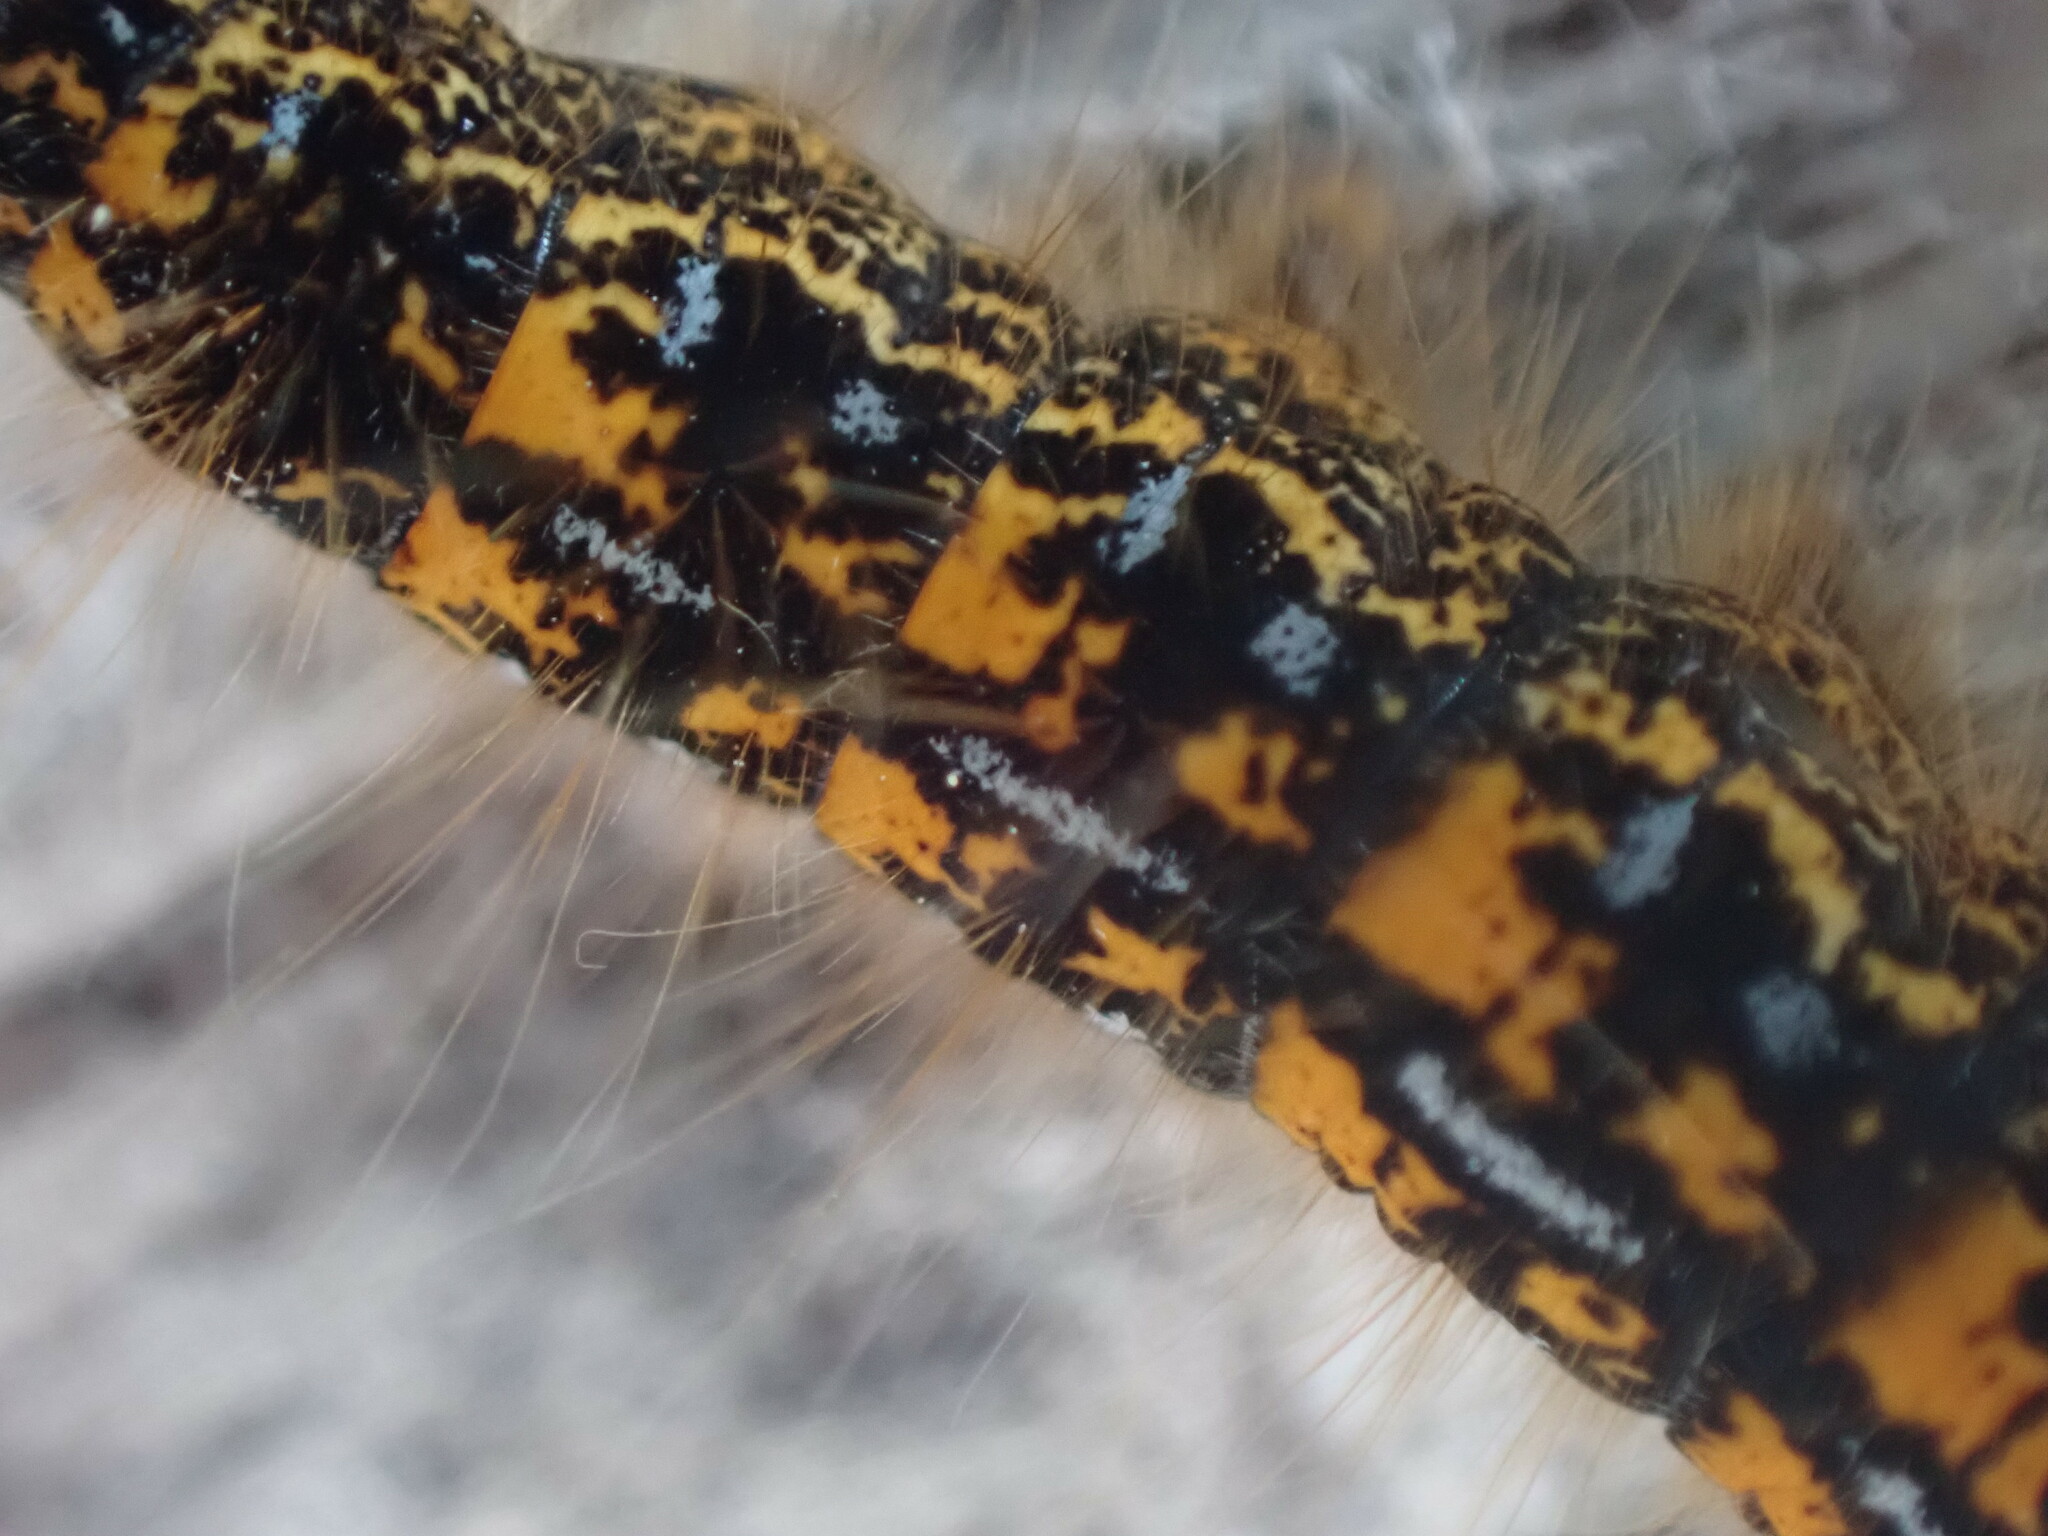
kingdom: Animalia
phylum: Arthropoda
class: Insecta
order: Lepidoptera
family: Lasiocampidae
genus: Malacosoma
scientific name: Malacosoma californica
